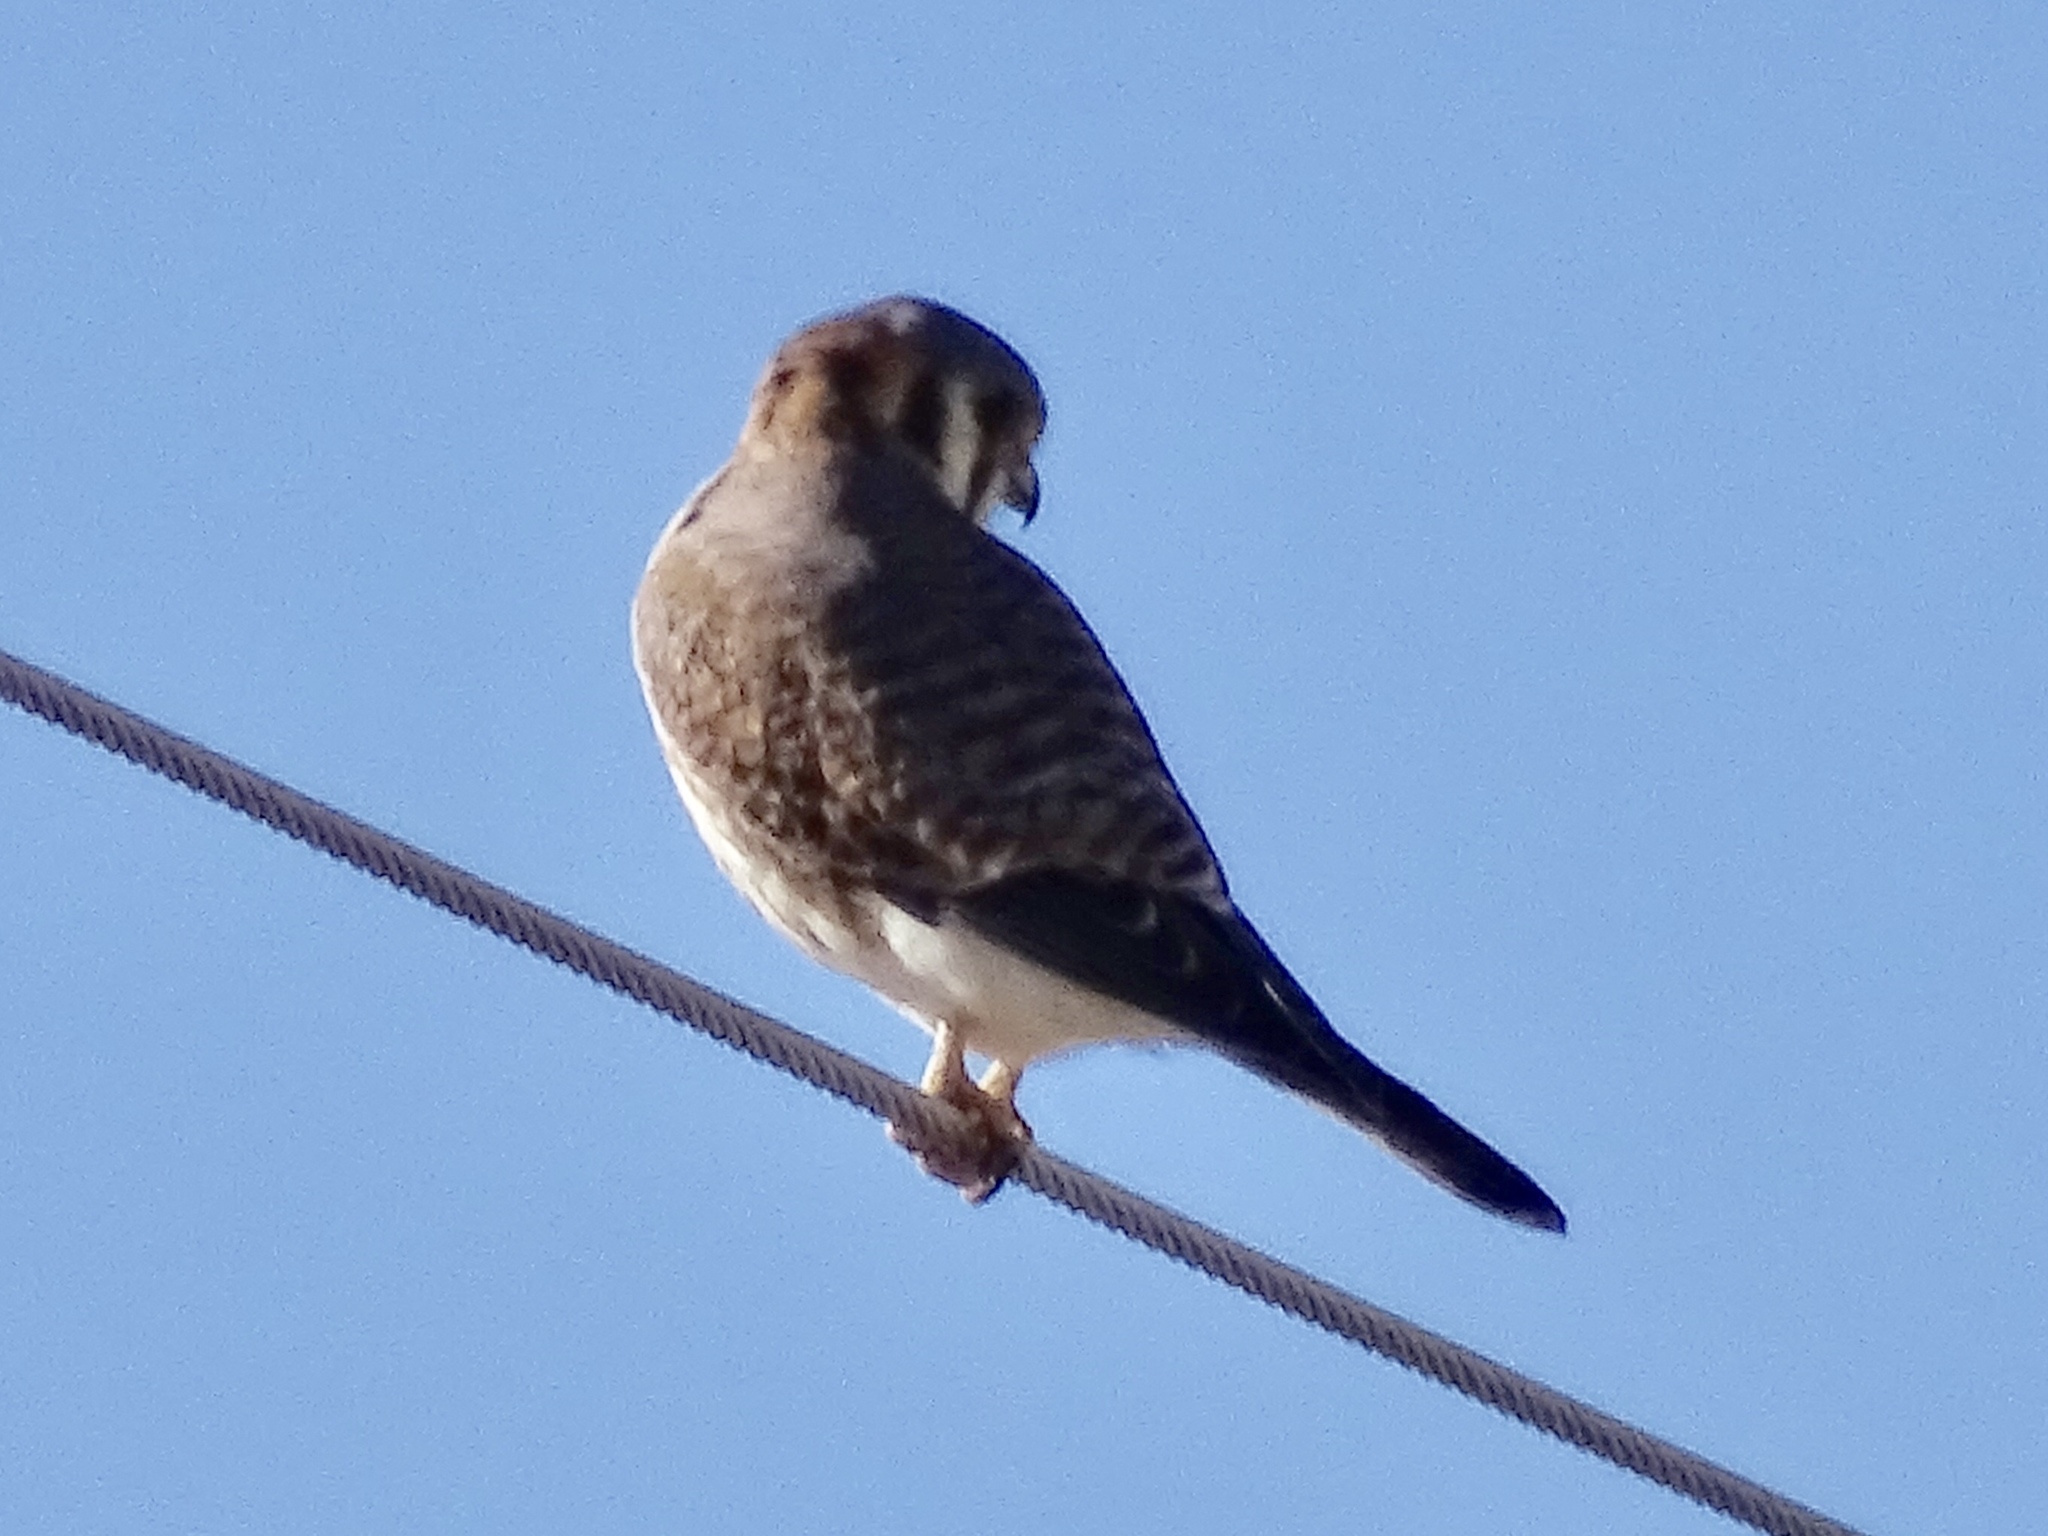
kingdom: Animalia
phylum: Chordata
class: Aves
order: Falconiformes
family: Falconidae
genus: Falco
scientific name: Falco sparverius
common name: American kestrel
